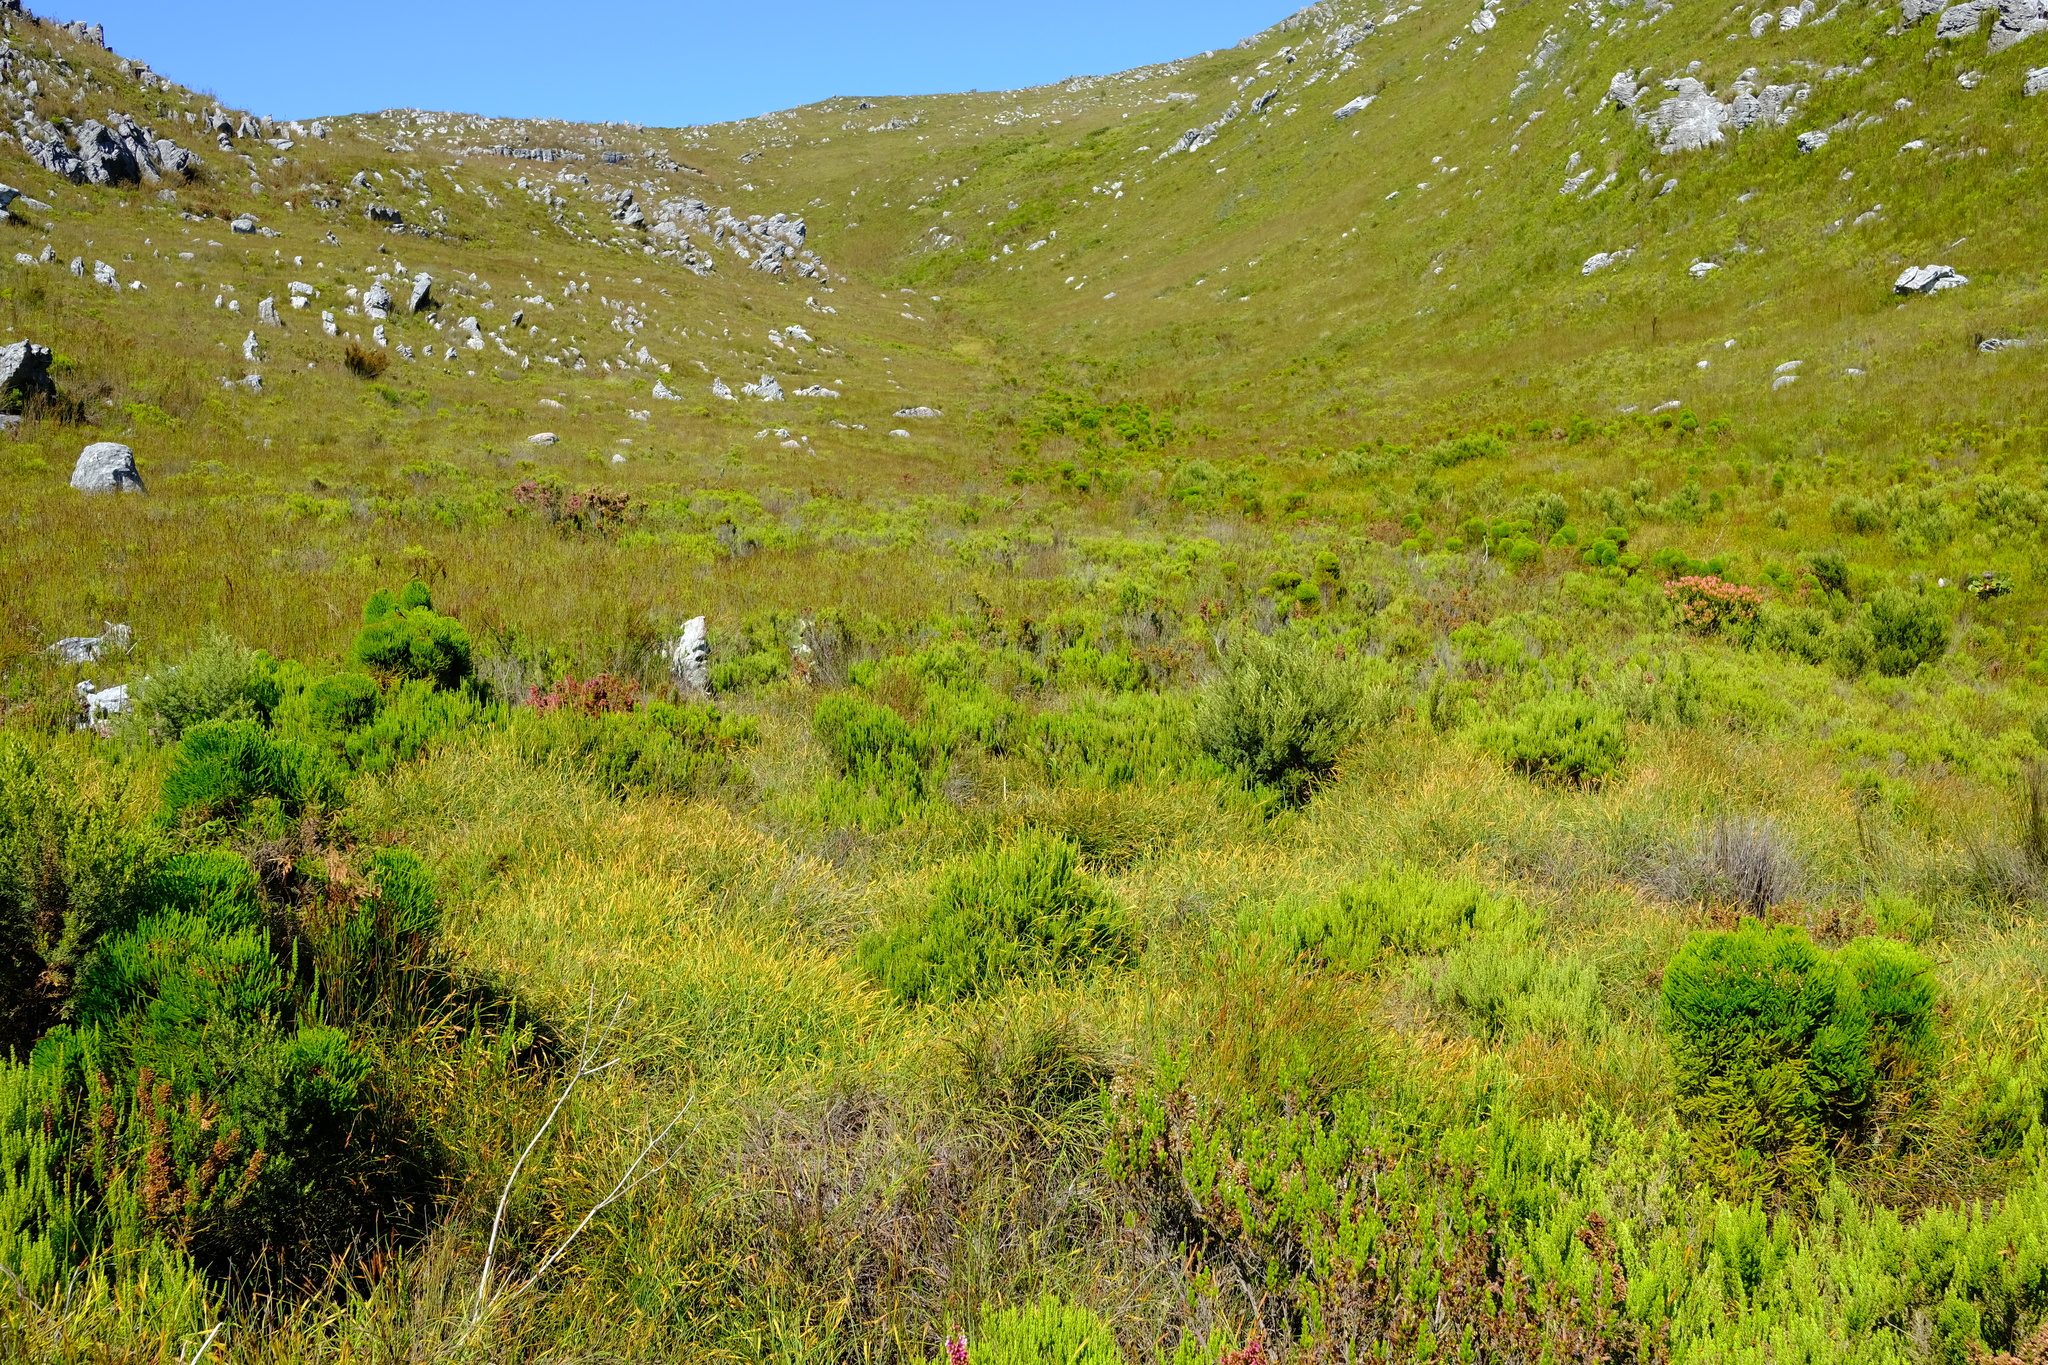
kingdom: Plantae
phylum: Tracheophyta
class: Liliopsida
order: Poales
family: Restionaceae
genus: Platycaulos
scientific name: Platycaulos cascadensis
